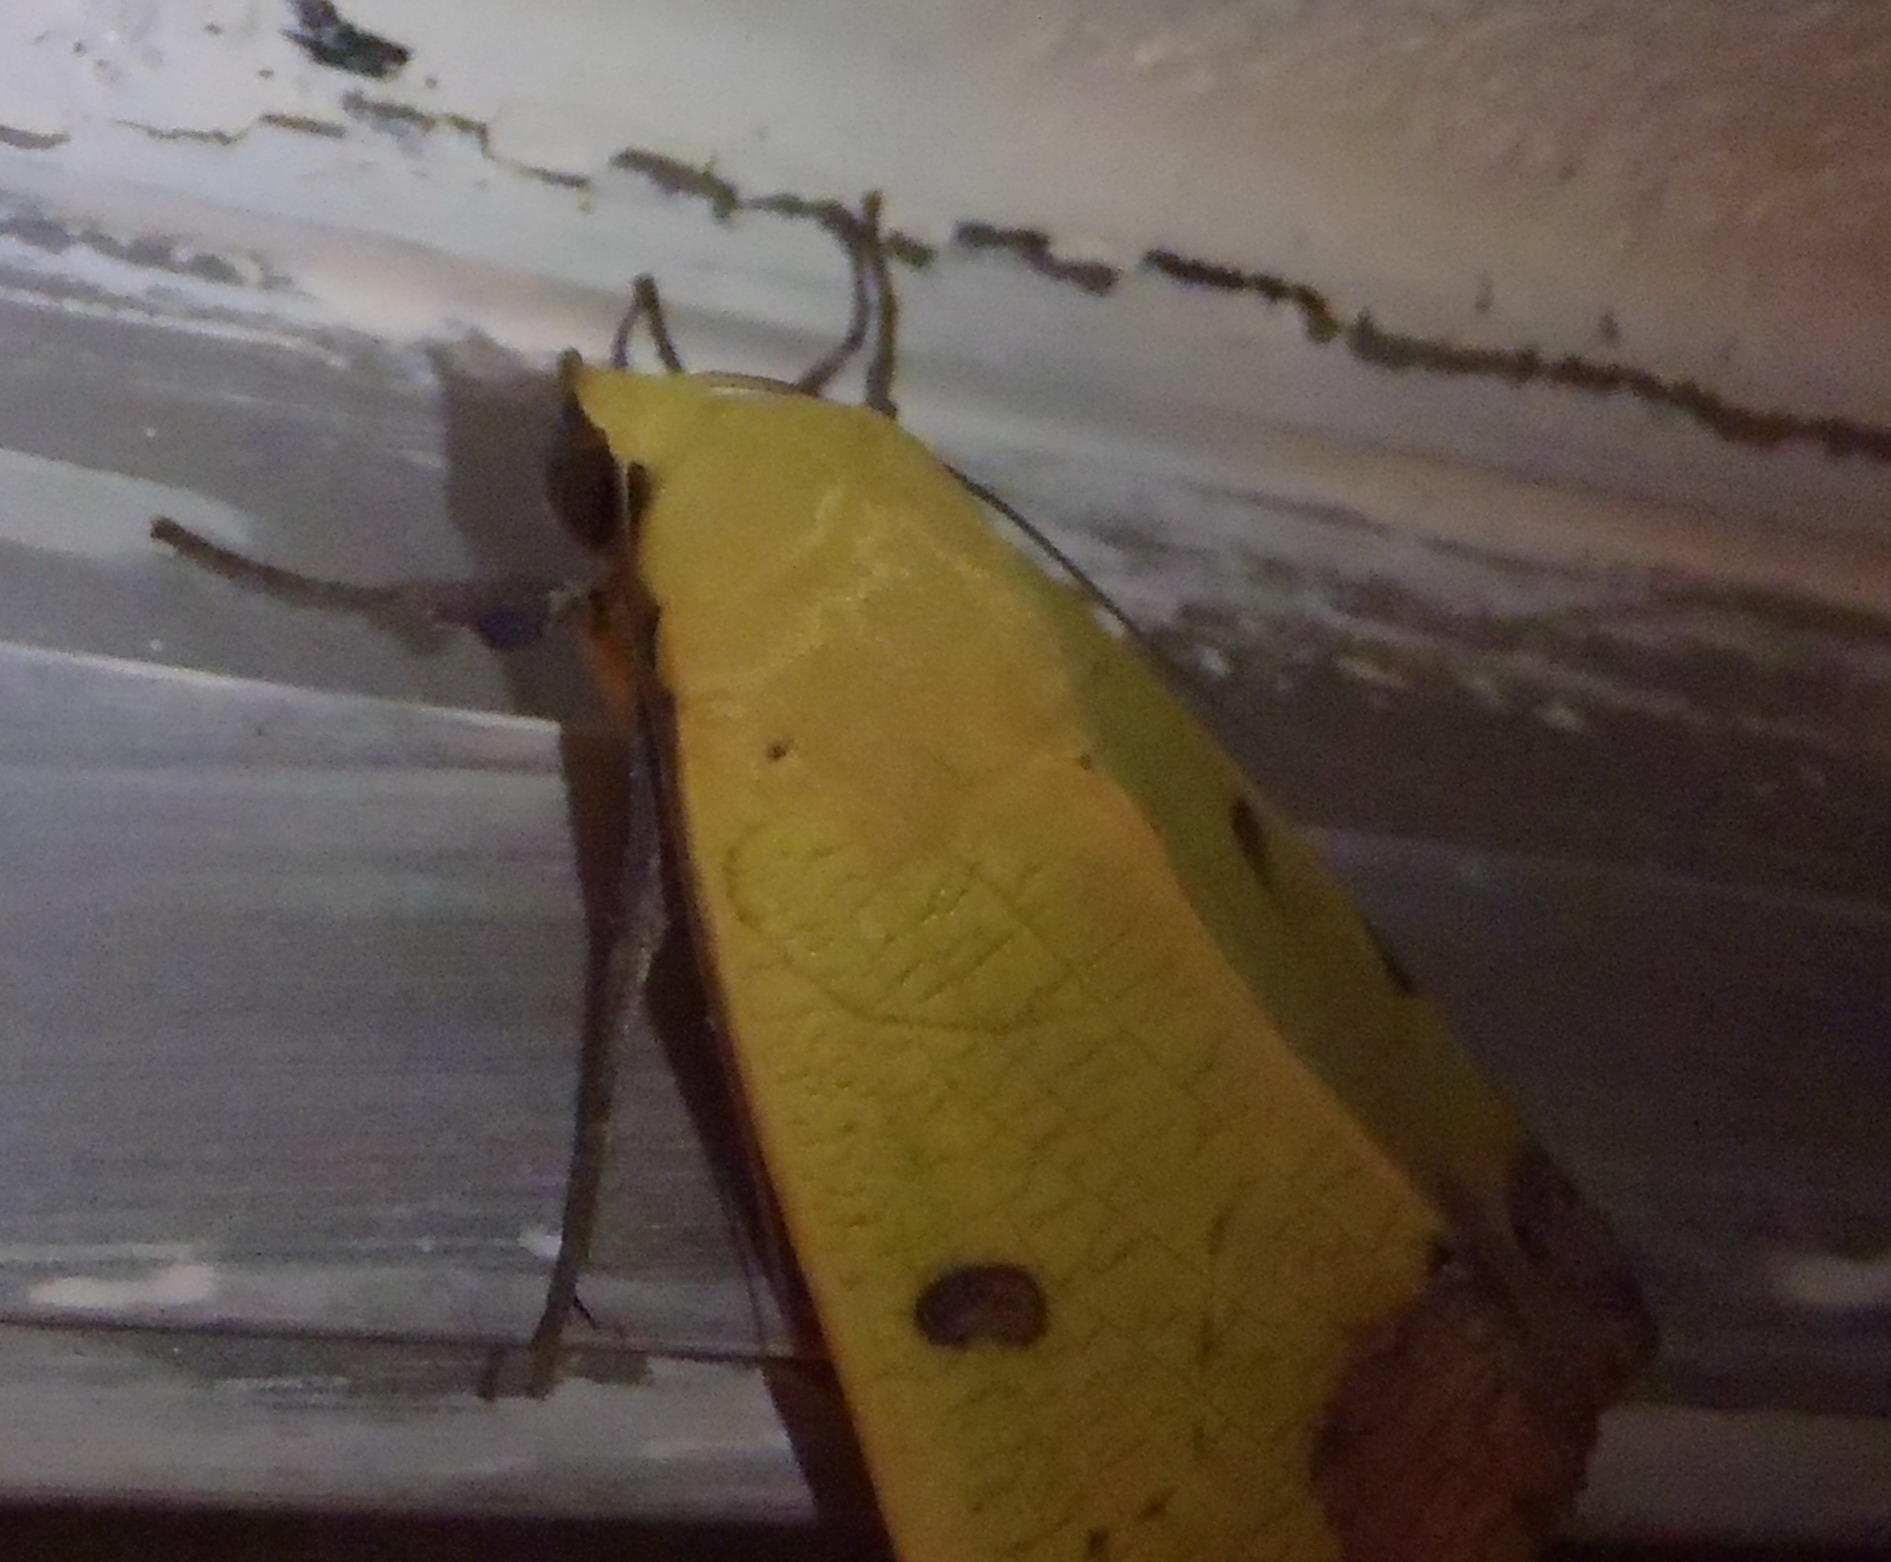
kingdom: Animalia
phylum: Arthropoda
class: Insecta
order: Lepidoptera
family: Erebidae
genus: Ophiusa
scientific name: Ophiusa tirhaca
